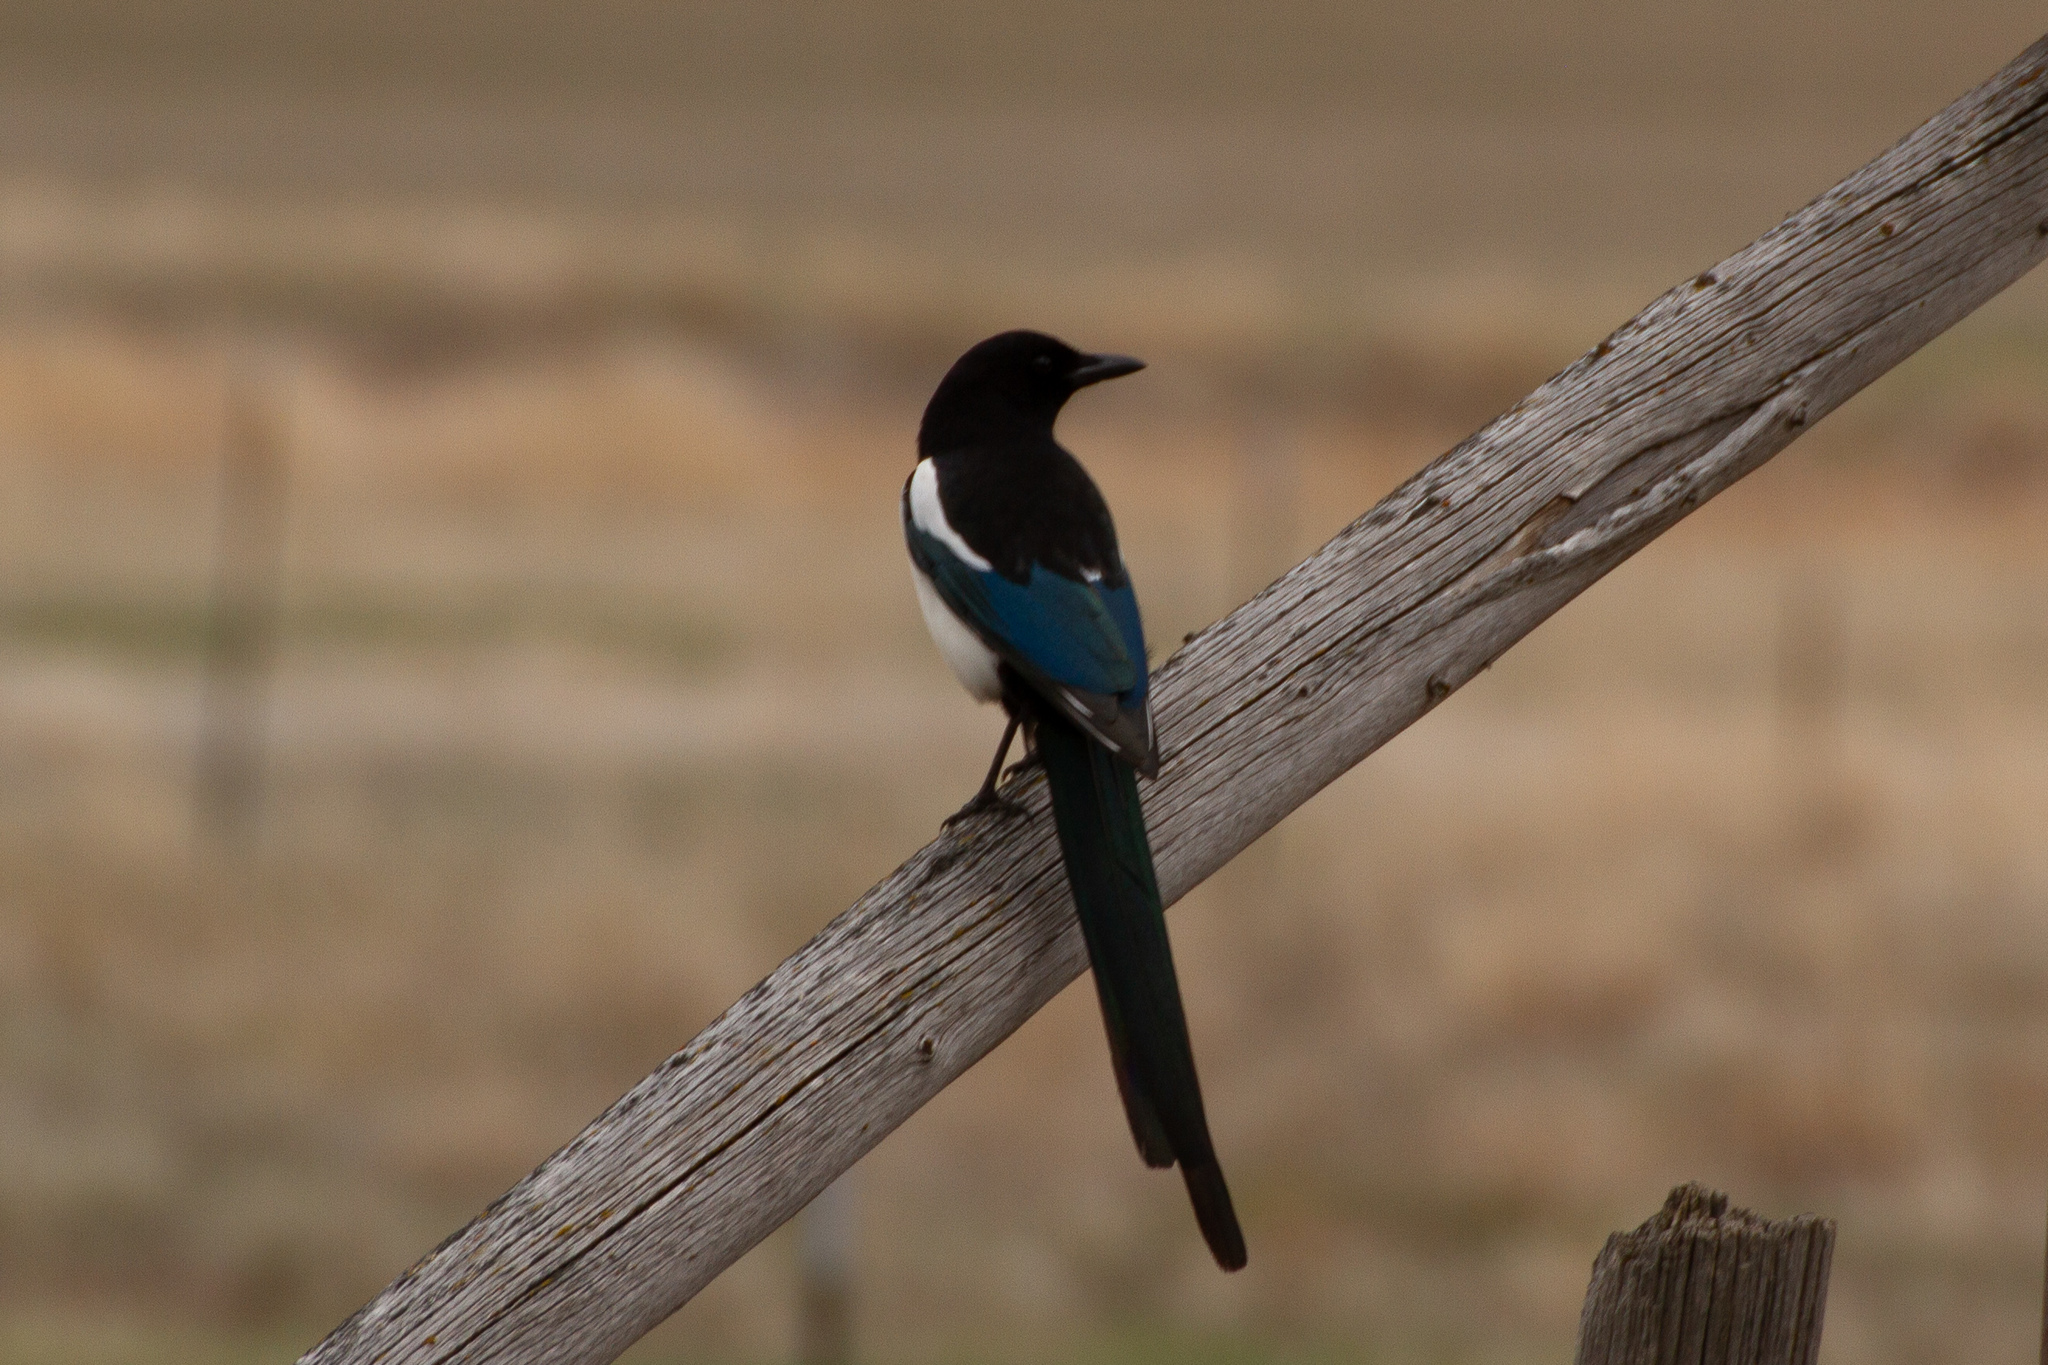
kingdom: Animalia
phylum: Chordata
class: Aves
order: Passeriformes
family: Corvidae
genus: Pica
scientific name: Pica hudsonia
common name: Black-billed magpie
